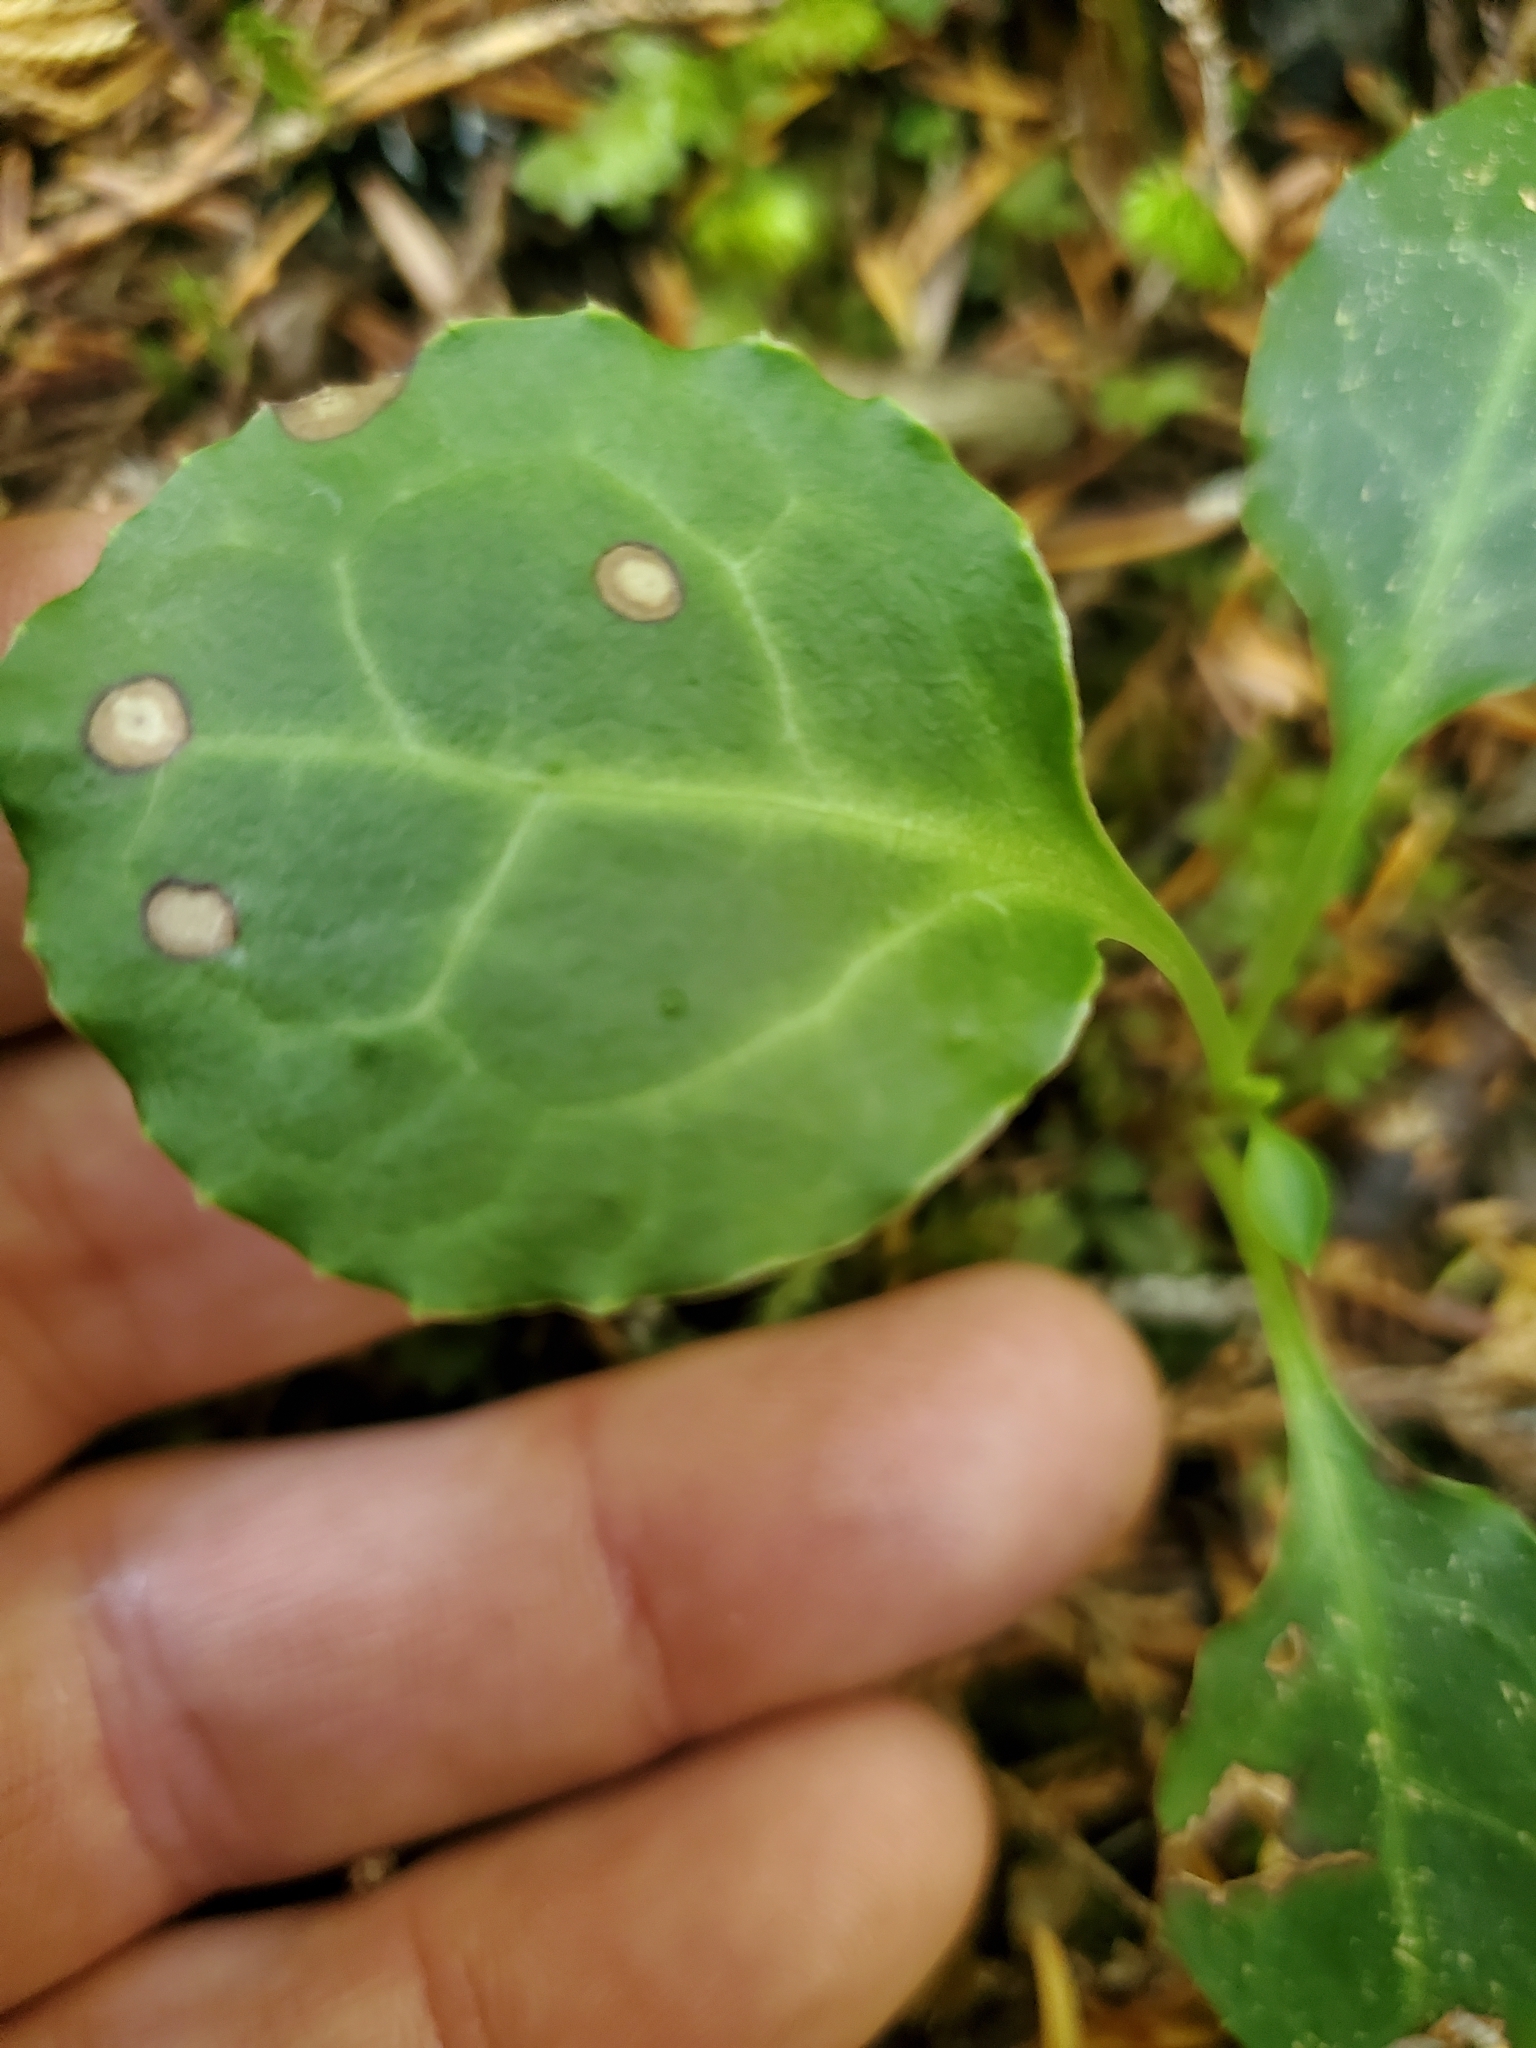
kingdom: Plantae
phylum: Tracheophyta
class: Magnoliopsida
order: Ericales
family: Ericaceae
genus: Pyrola
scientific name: Pyrola picta
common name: White-vein wintergreen
